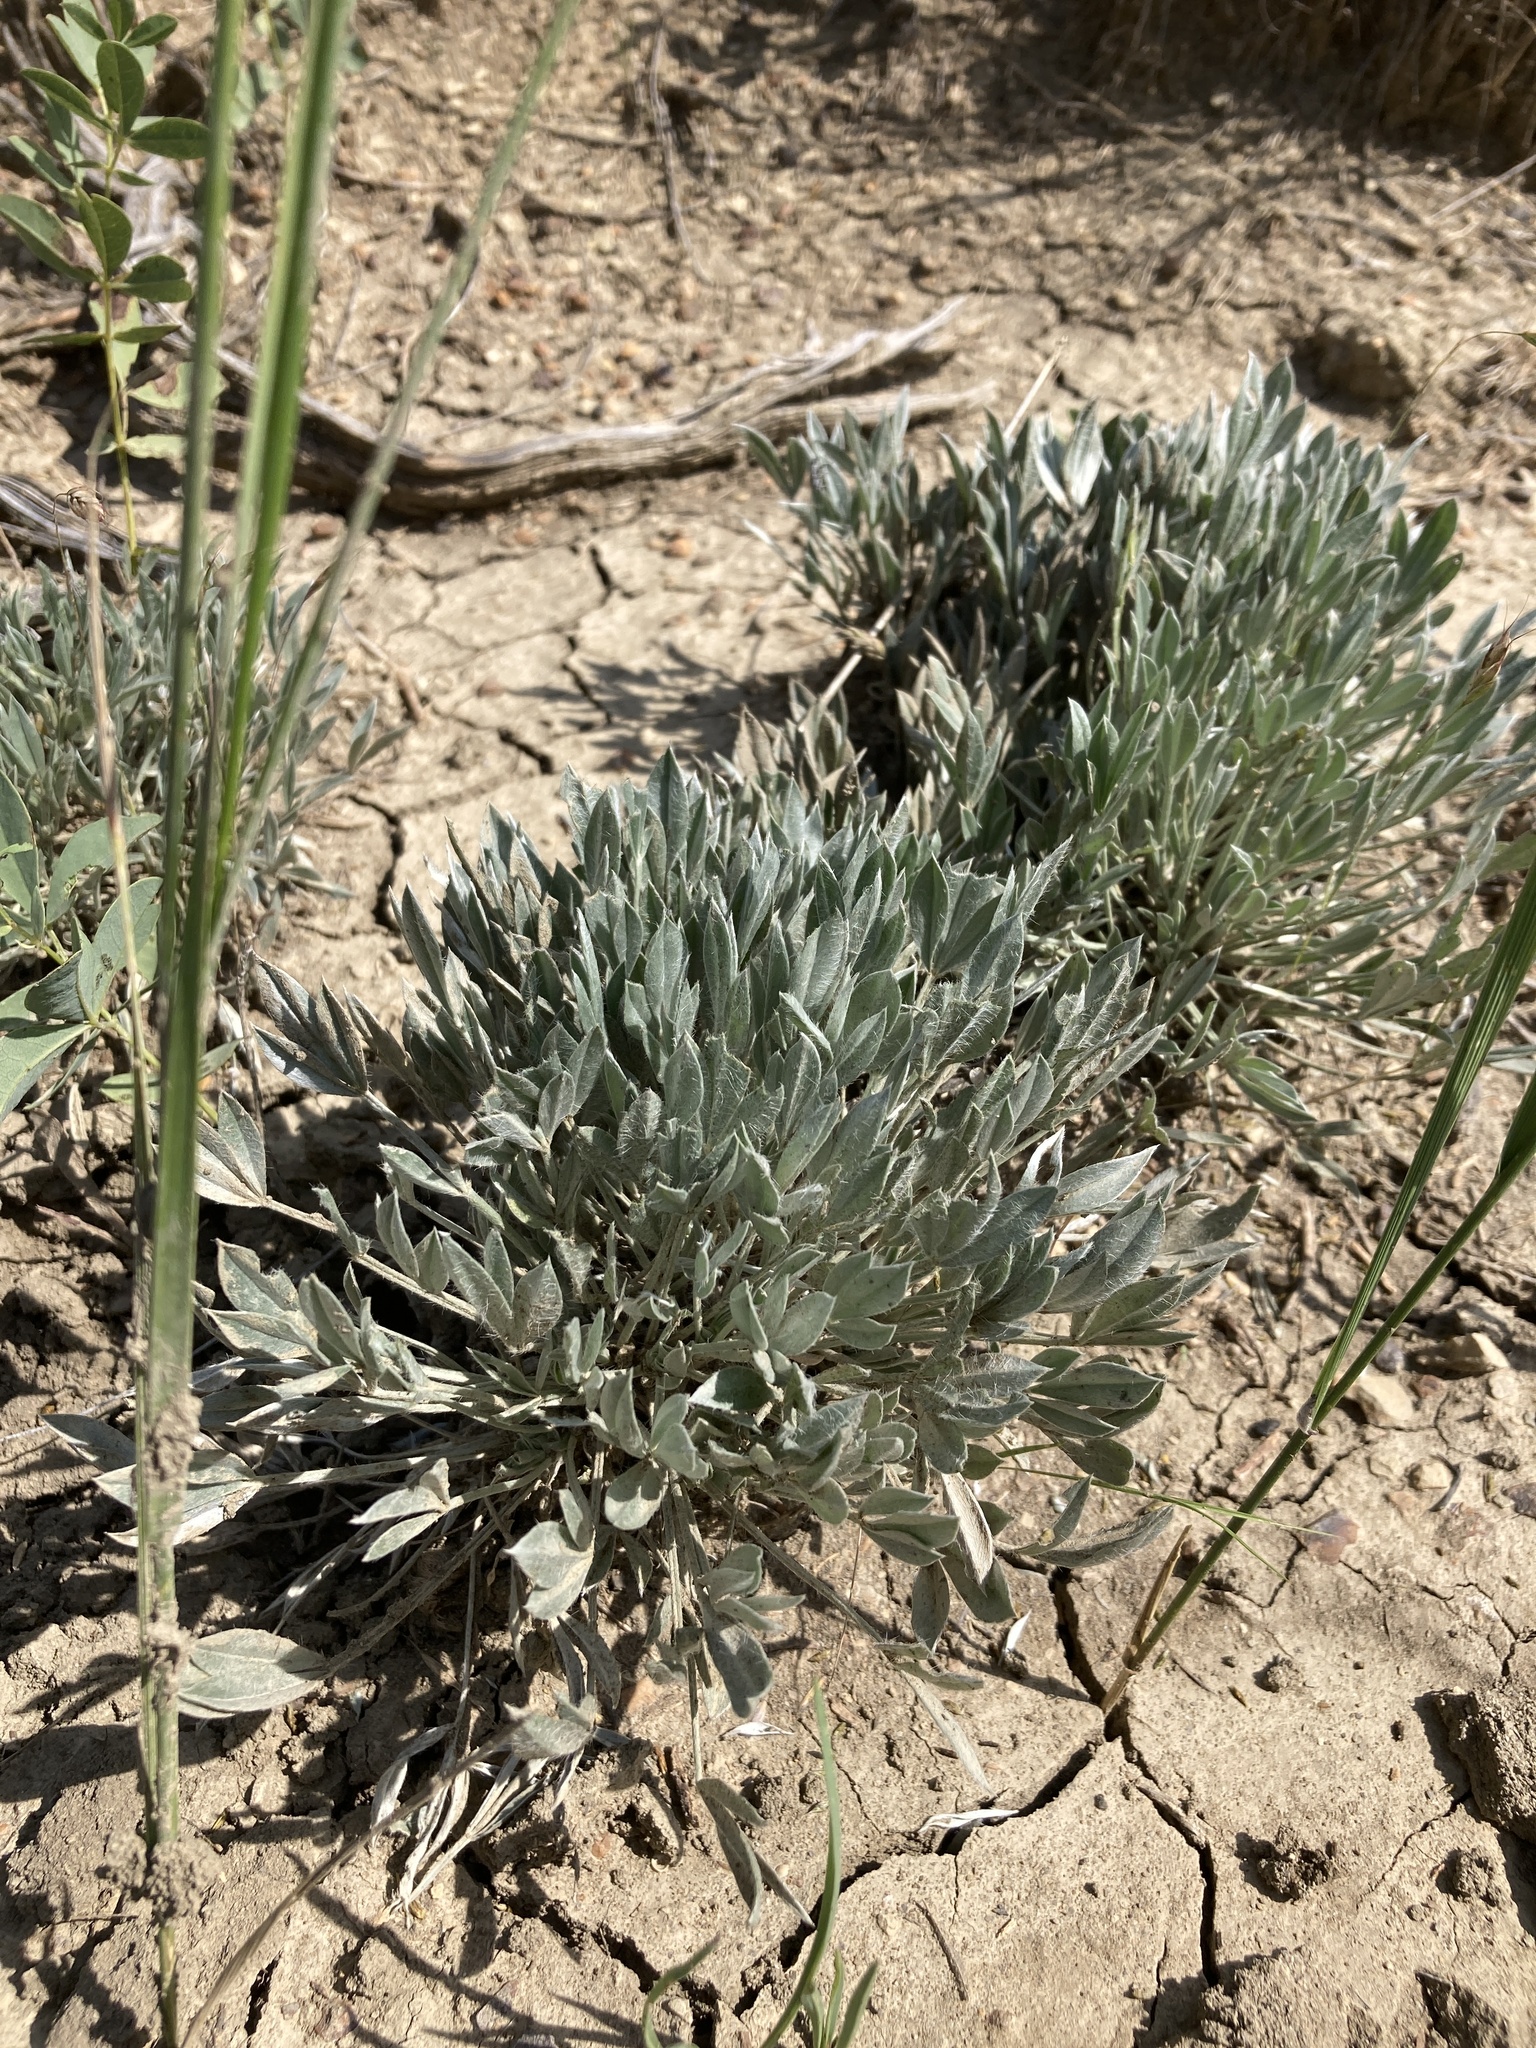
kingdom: Plantae
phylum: Tracheophyta
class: Magnoliopsida
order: Fabales
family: Fabaceae
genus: Astragalus
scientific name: Astragalus gilviflorus
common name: Cushion milk-vetch
